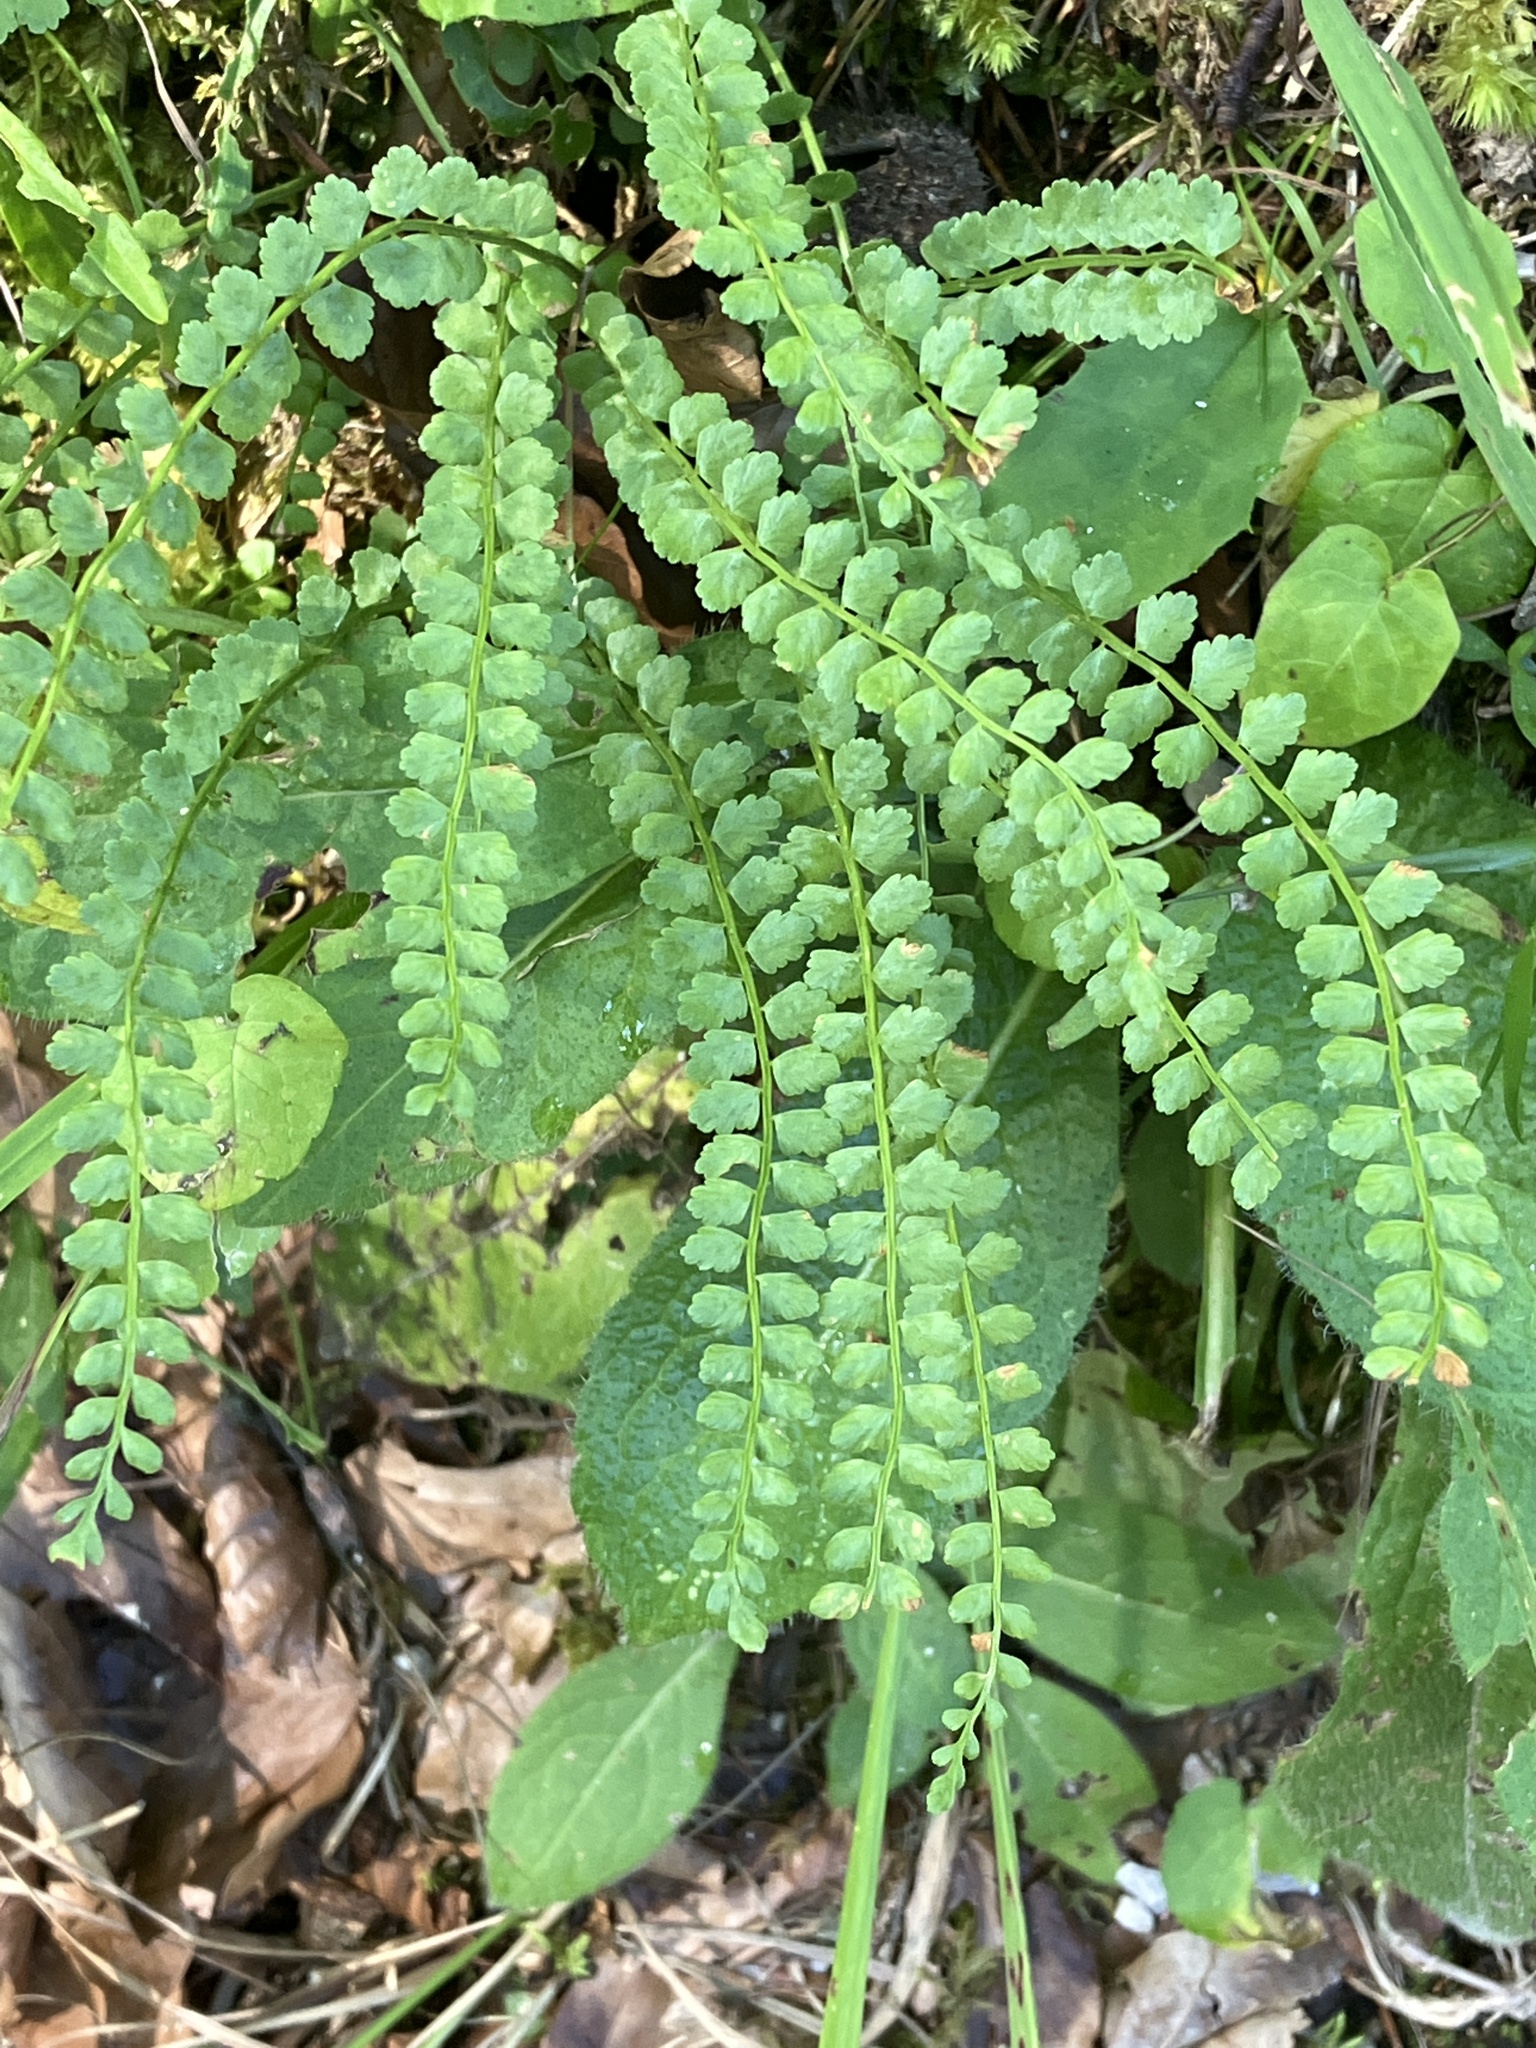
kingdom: Plantae
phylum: Tracheophyta
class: Polypodiopsida
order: Polypodiales
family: Aspleniaceae
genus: Asplenium
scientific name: Asplenium viride
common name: Green spleenwort
